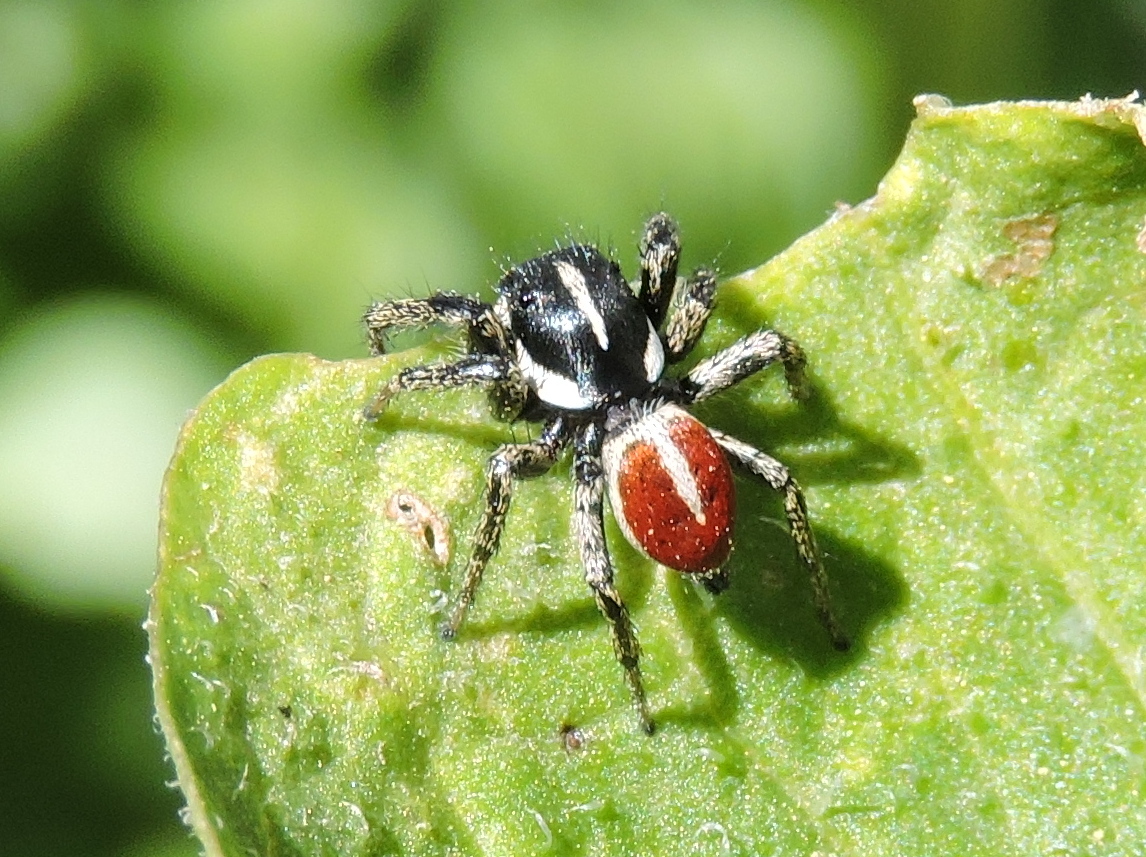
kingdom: Animalia
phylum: Arthropoda
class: Arachnida
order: Araneae
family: Salticidae
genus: Phiale
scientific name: Phiale roburifoliata
